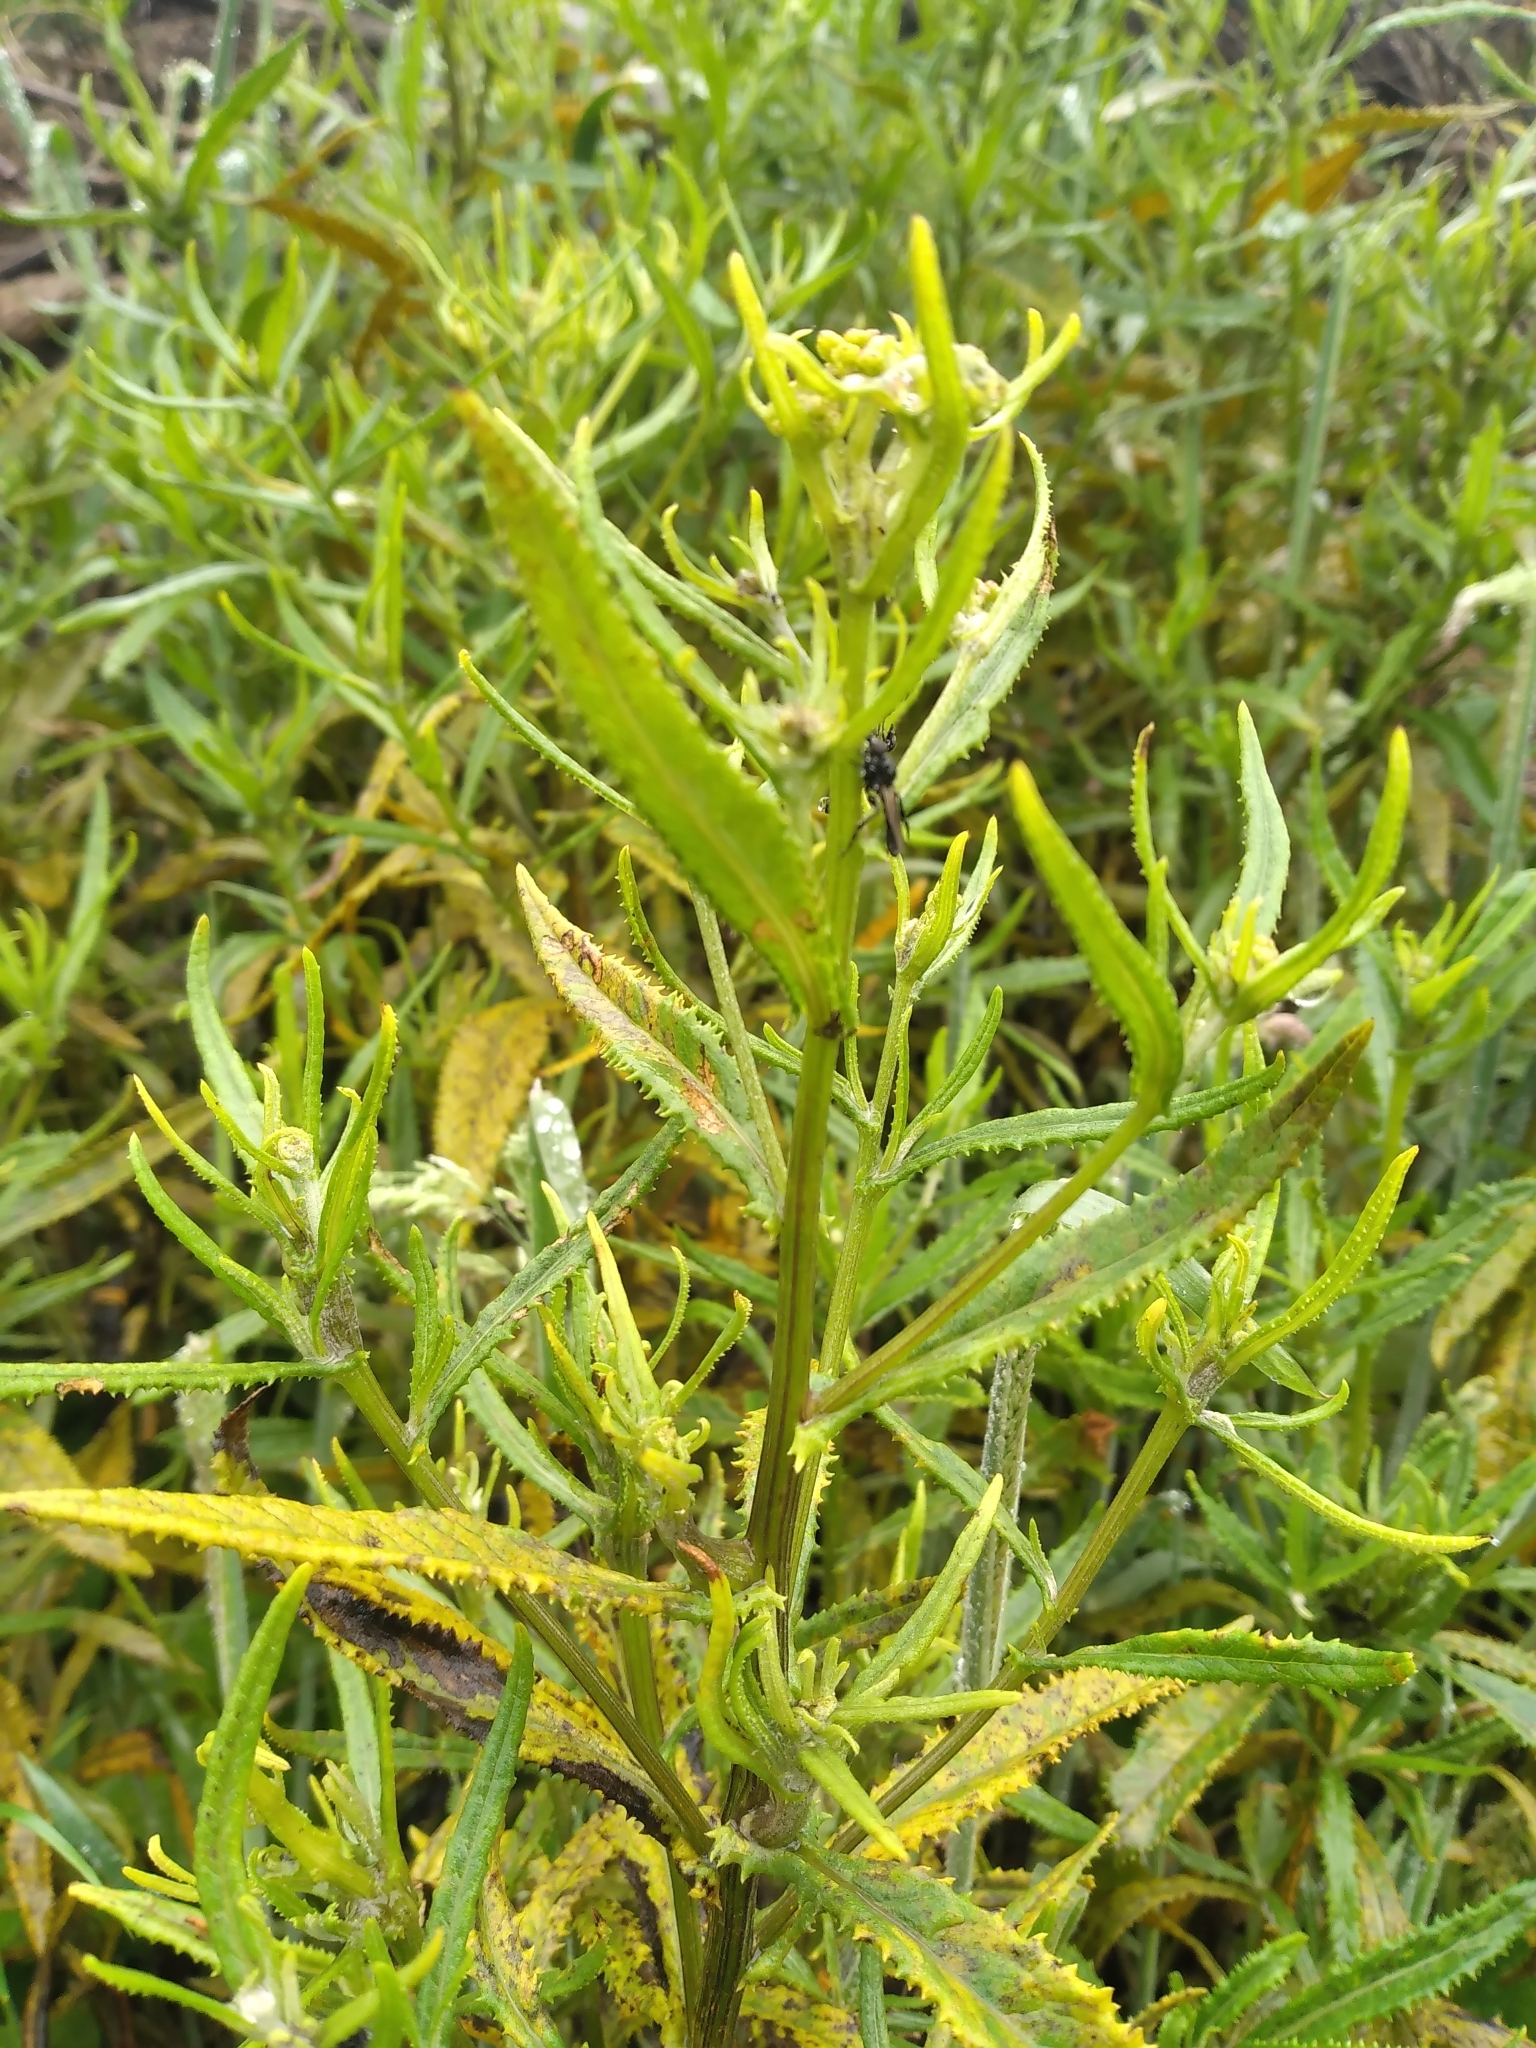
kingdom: Plantae
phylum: Tracheophyta
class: Magnoliopsida
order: Asterales
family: Asteraceae
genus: Senecio
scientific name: Senecio minimus
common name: Toothed fireweed
